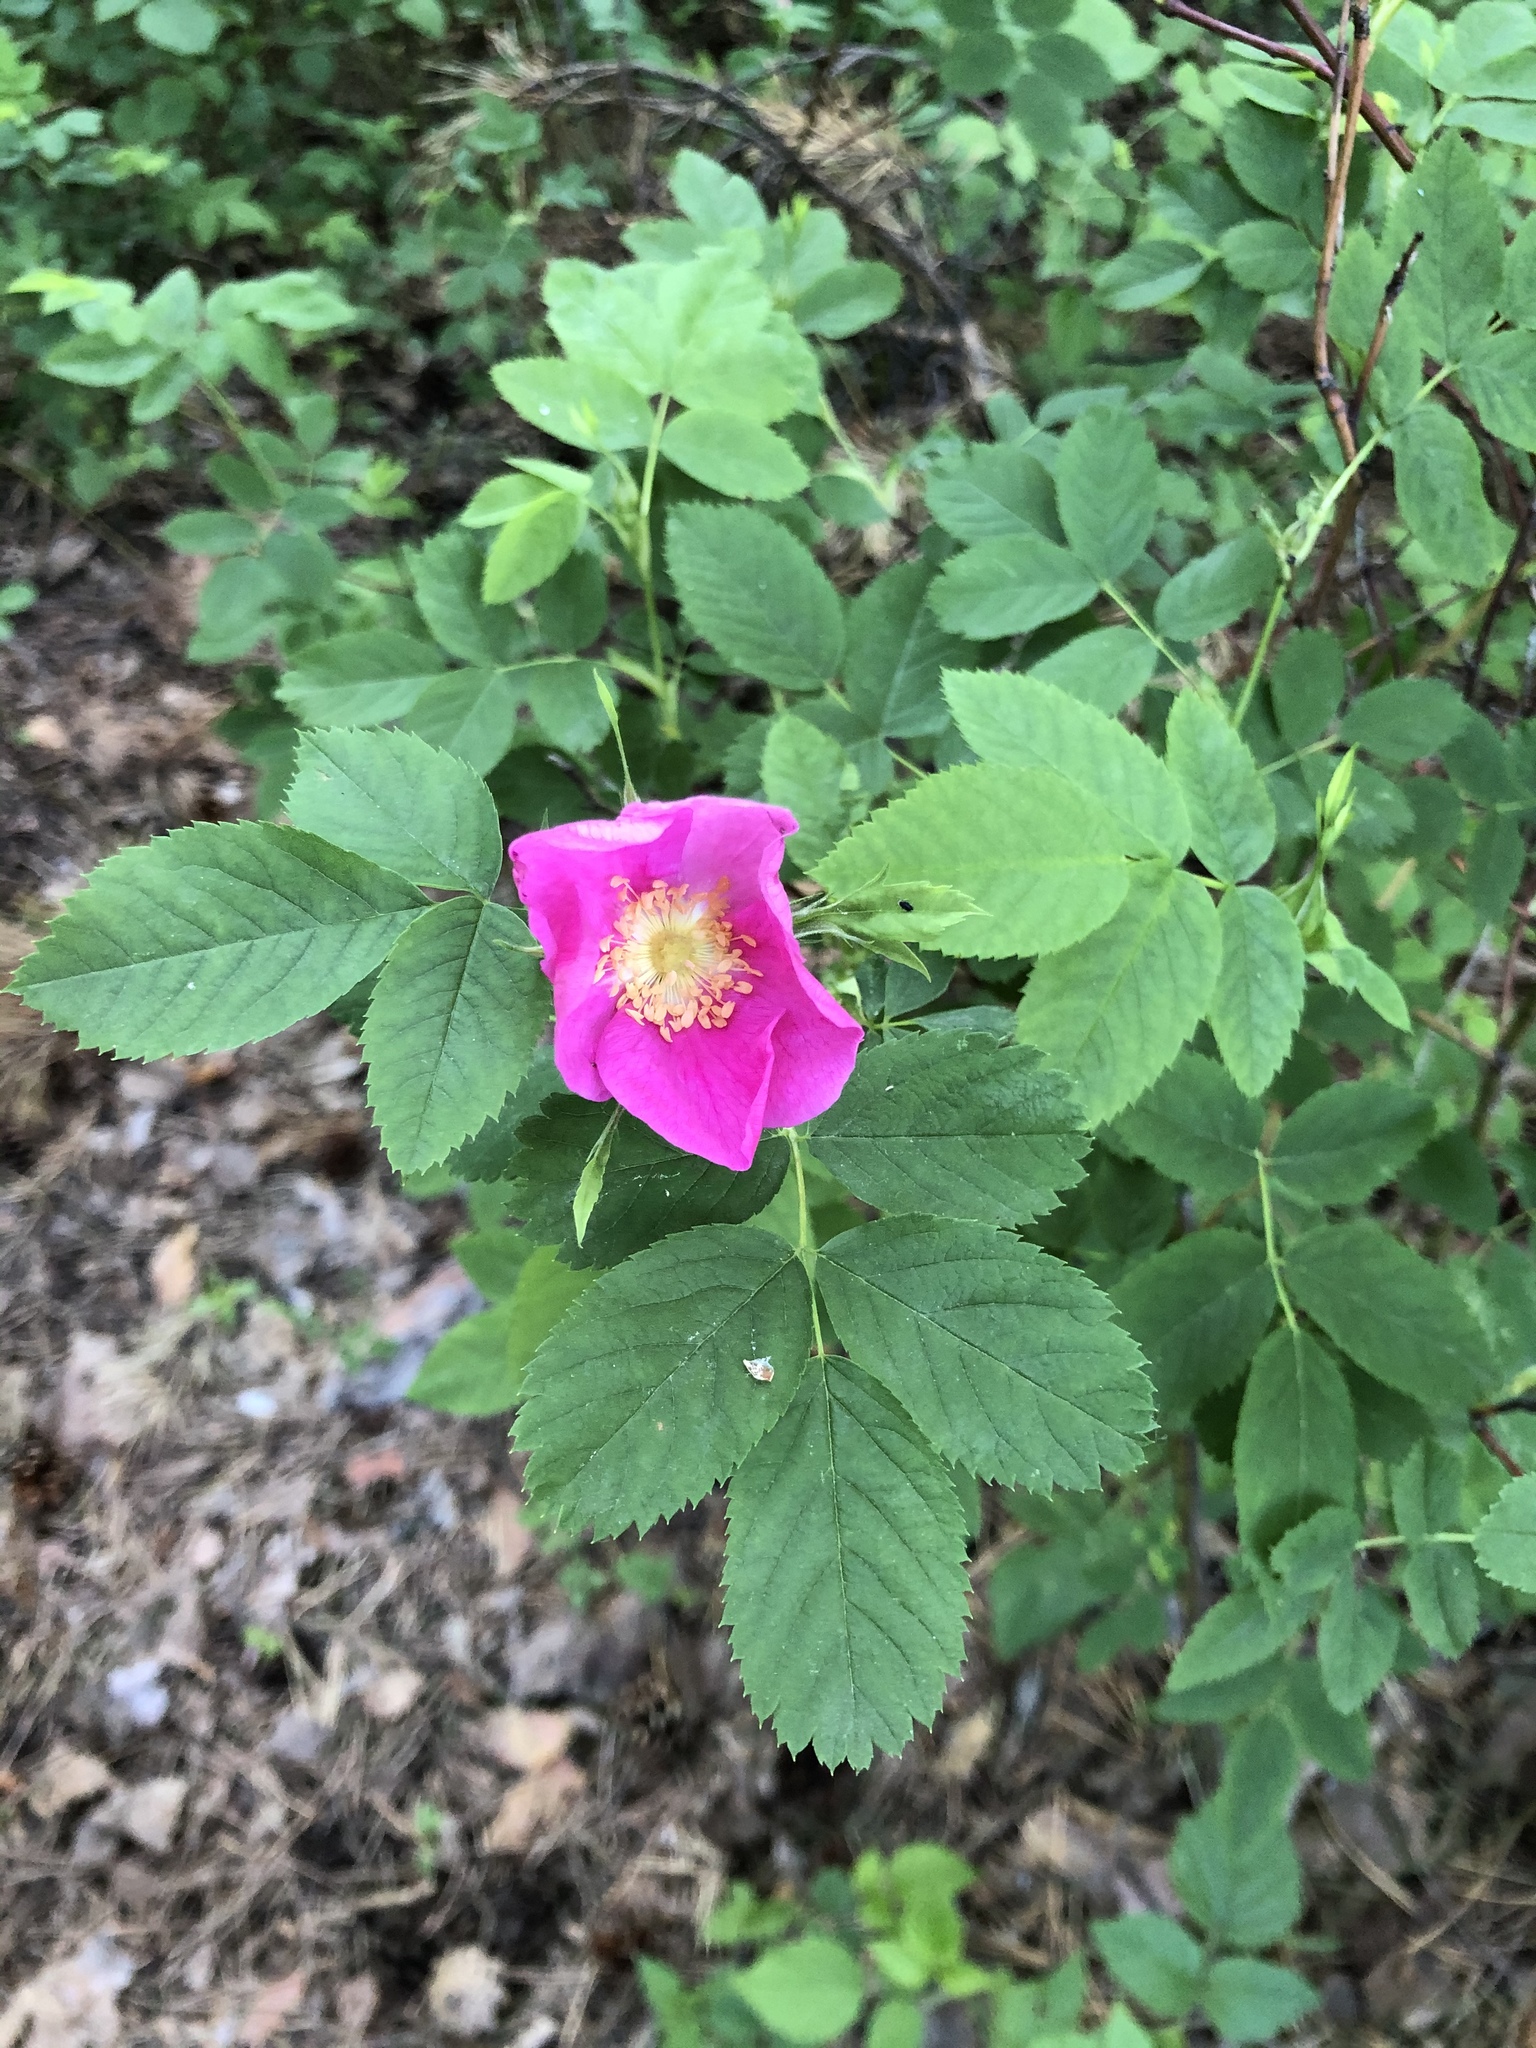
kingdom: Plantae
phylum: Tracheophyta
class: Magnoliopsida
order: Rosales
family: Rosaceae
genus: Rosa
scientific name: Rosa majalis
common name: Cinnamon rose
